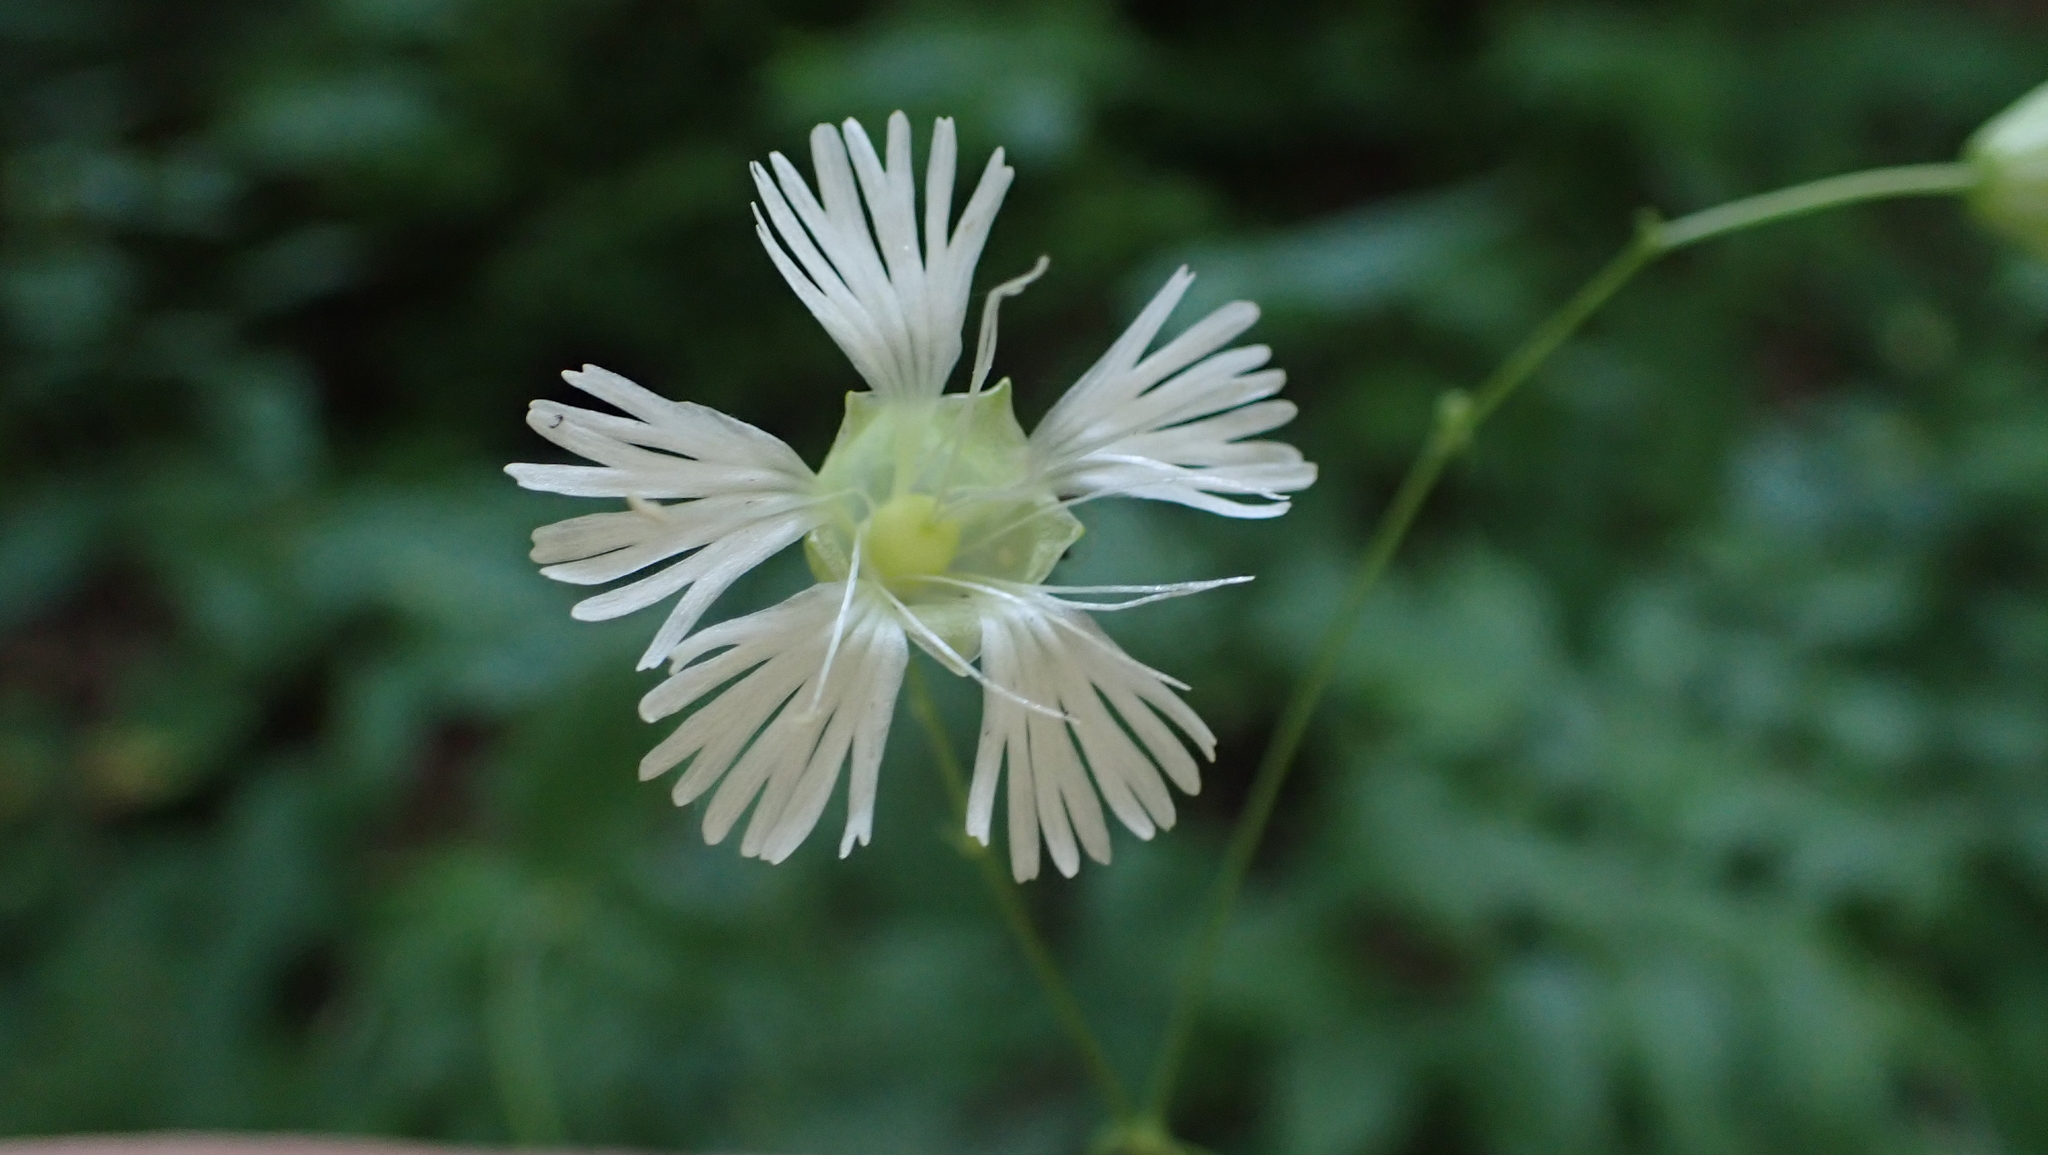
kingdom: Plantae
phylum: Tracheophyta
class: Magnoliopsida
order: Caryophyllales
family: Caryophyllaceae
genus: Silene
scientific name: Silene stellata
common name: Starry campion
